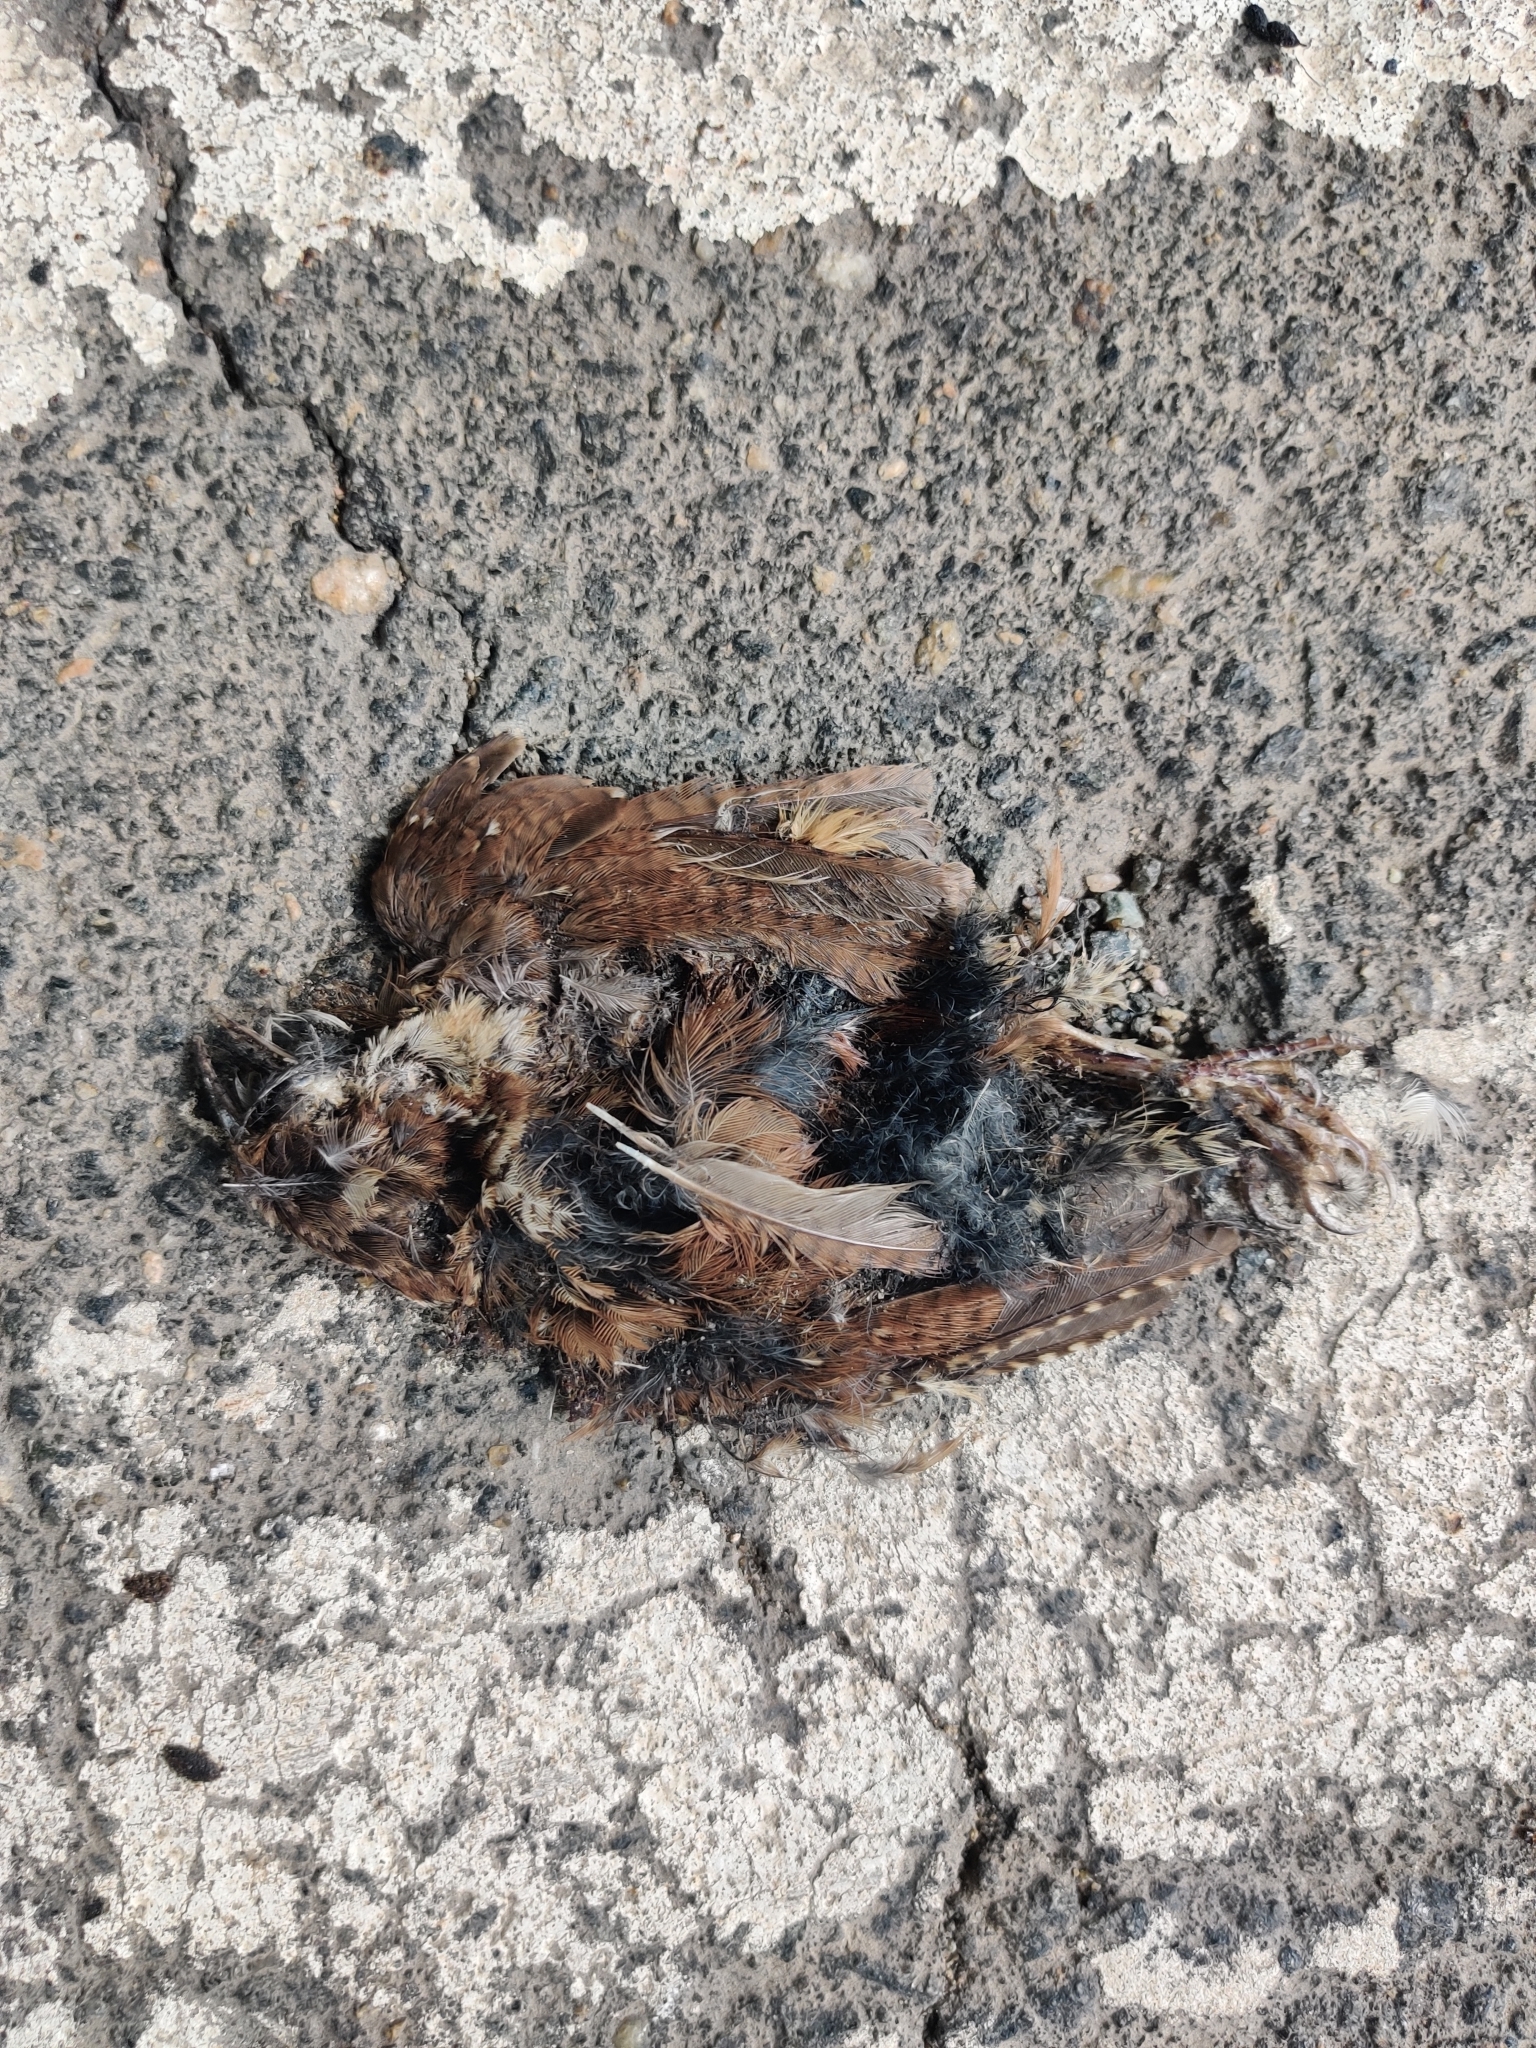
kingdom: Animalia
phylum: Chordata
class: Aves
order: Passeriformes
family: Troglodytidae
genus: Thryothorus
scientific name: Thryothorus ludovicianus
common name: Carolina wren
